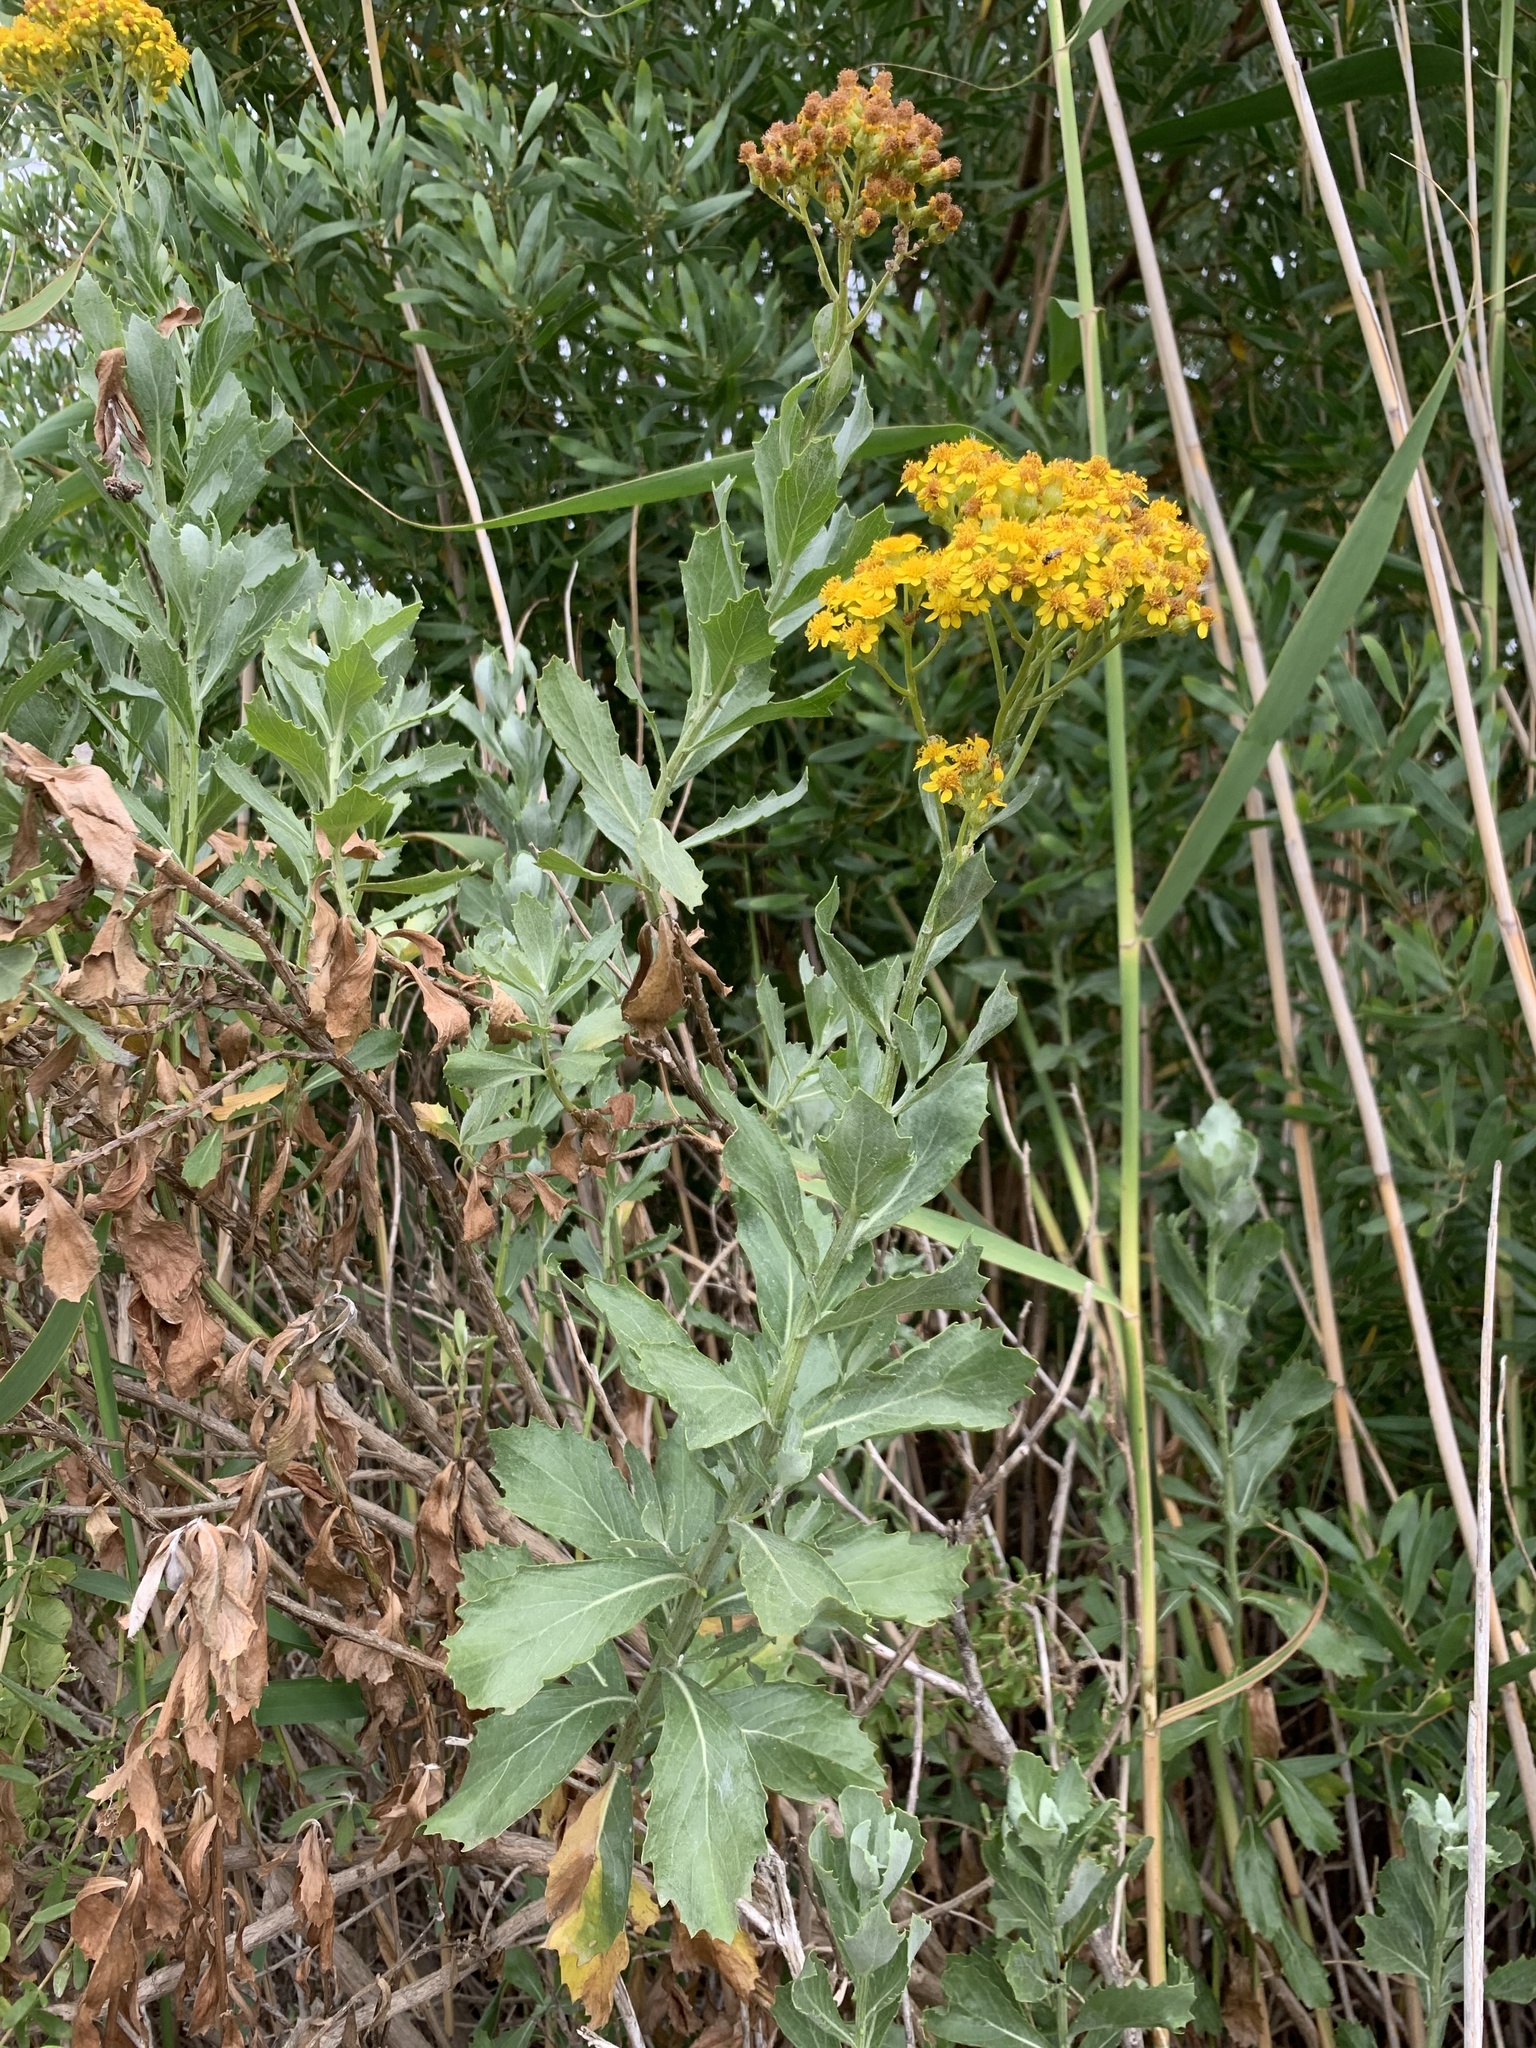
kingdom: Plantae
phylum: Tracheophyta
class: Magnoliopsida
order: Asterales
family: Asteraceae
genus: Senecio
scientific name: Senecio halimifolius
